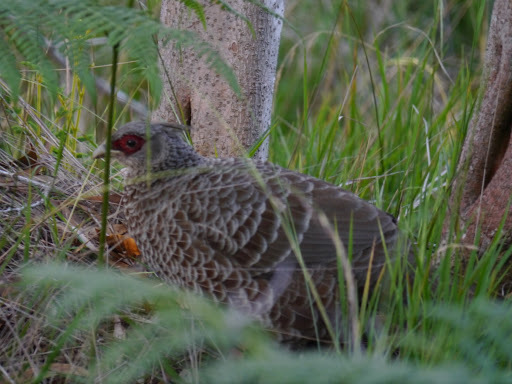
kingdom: Animalia
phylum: Chordata
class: Aves
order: Galliformes
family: Phasianidae
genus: Lophura
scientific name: Lophura leucomelanos
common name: Kalij pheasant
